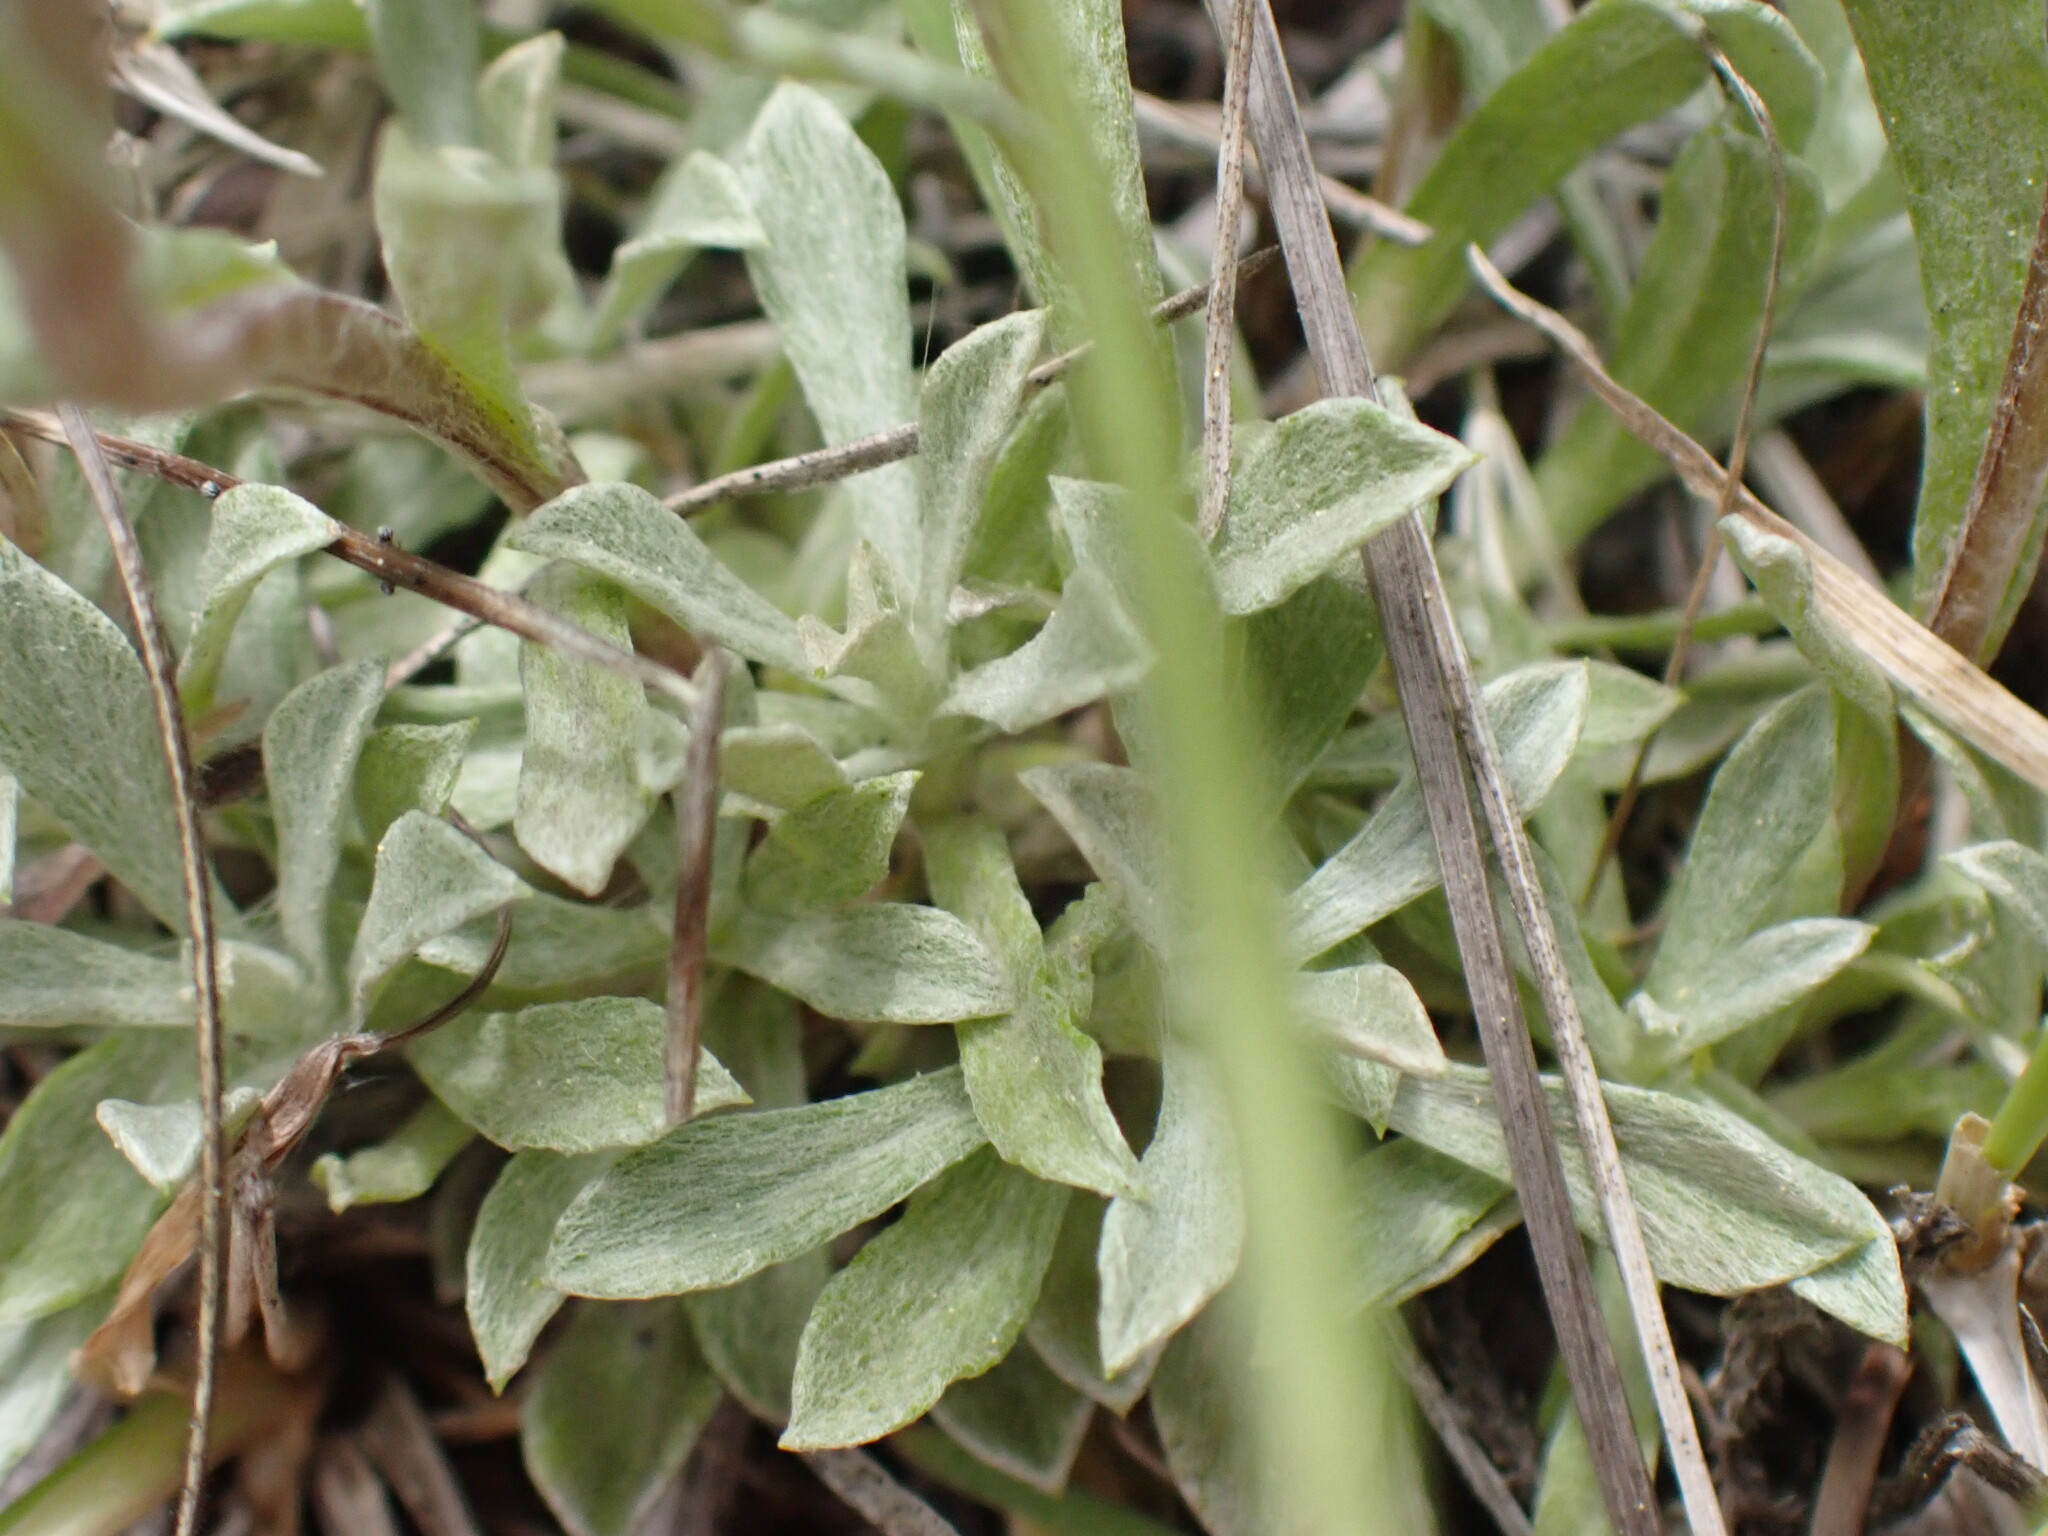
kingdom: Plantae
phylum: Tracheophyta
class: Magnoliopsida
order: Fabales
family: Fabaceae
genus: Astragalus
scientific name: Astragalus miser
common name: Timber milkvetch
